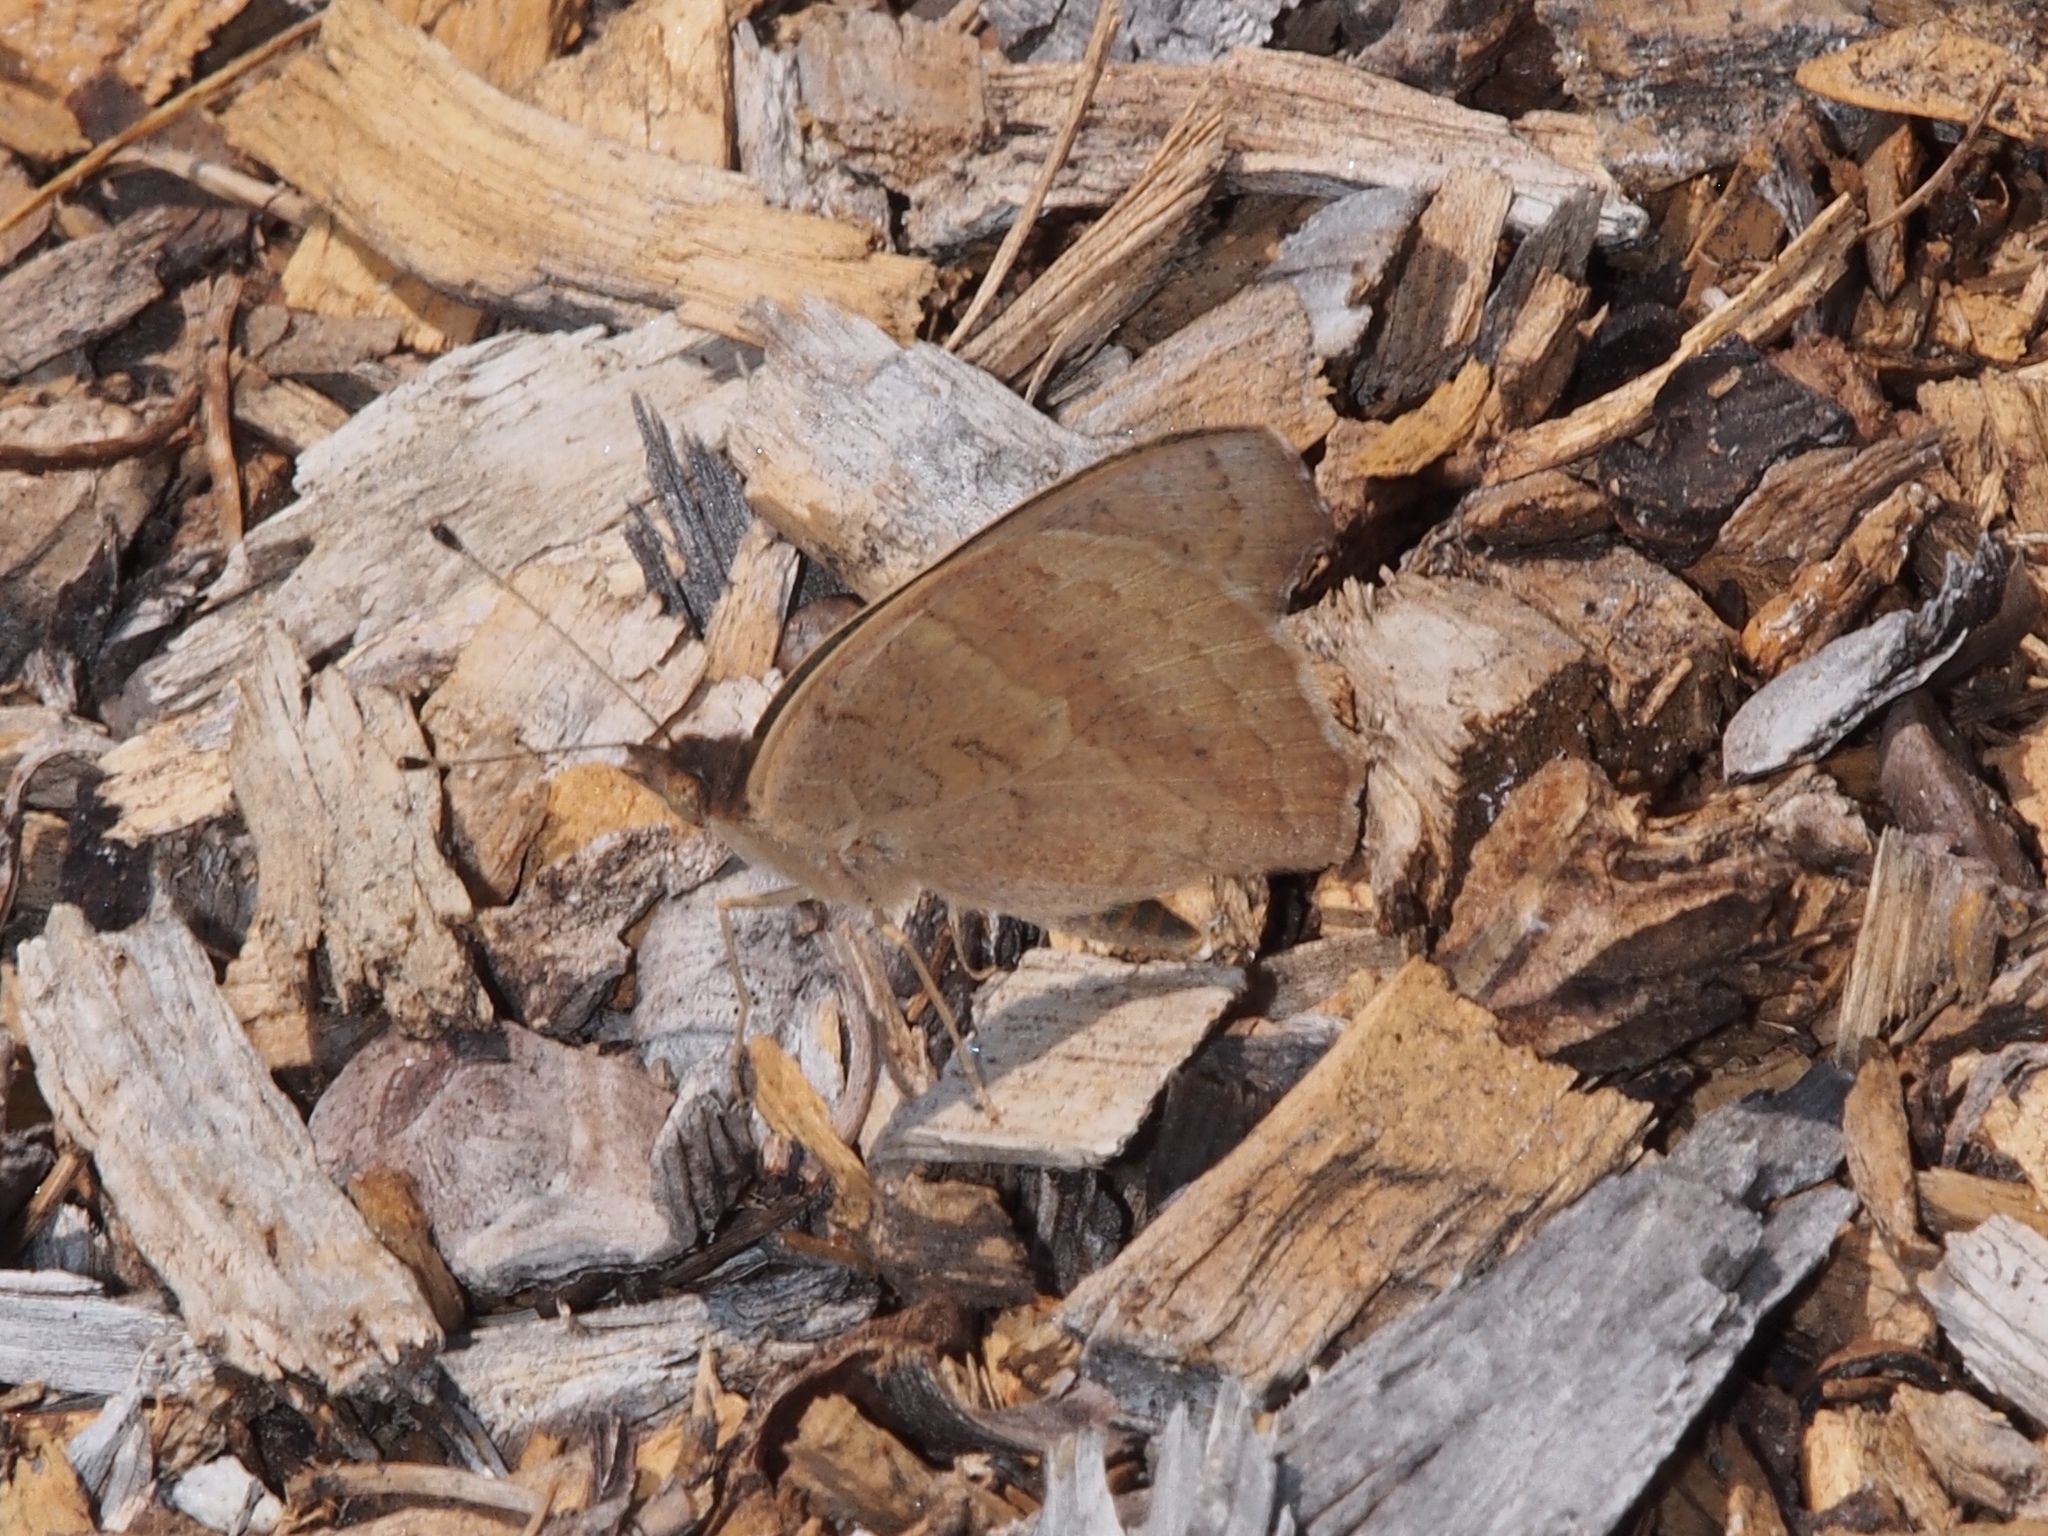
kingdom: Animalia
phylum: Arthropoda
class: Insecta
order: Lepidoptera
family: Nymphalidae
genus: Junonia
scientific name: Junonia grisea
